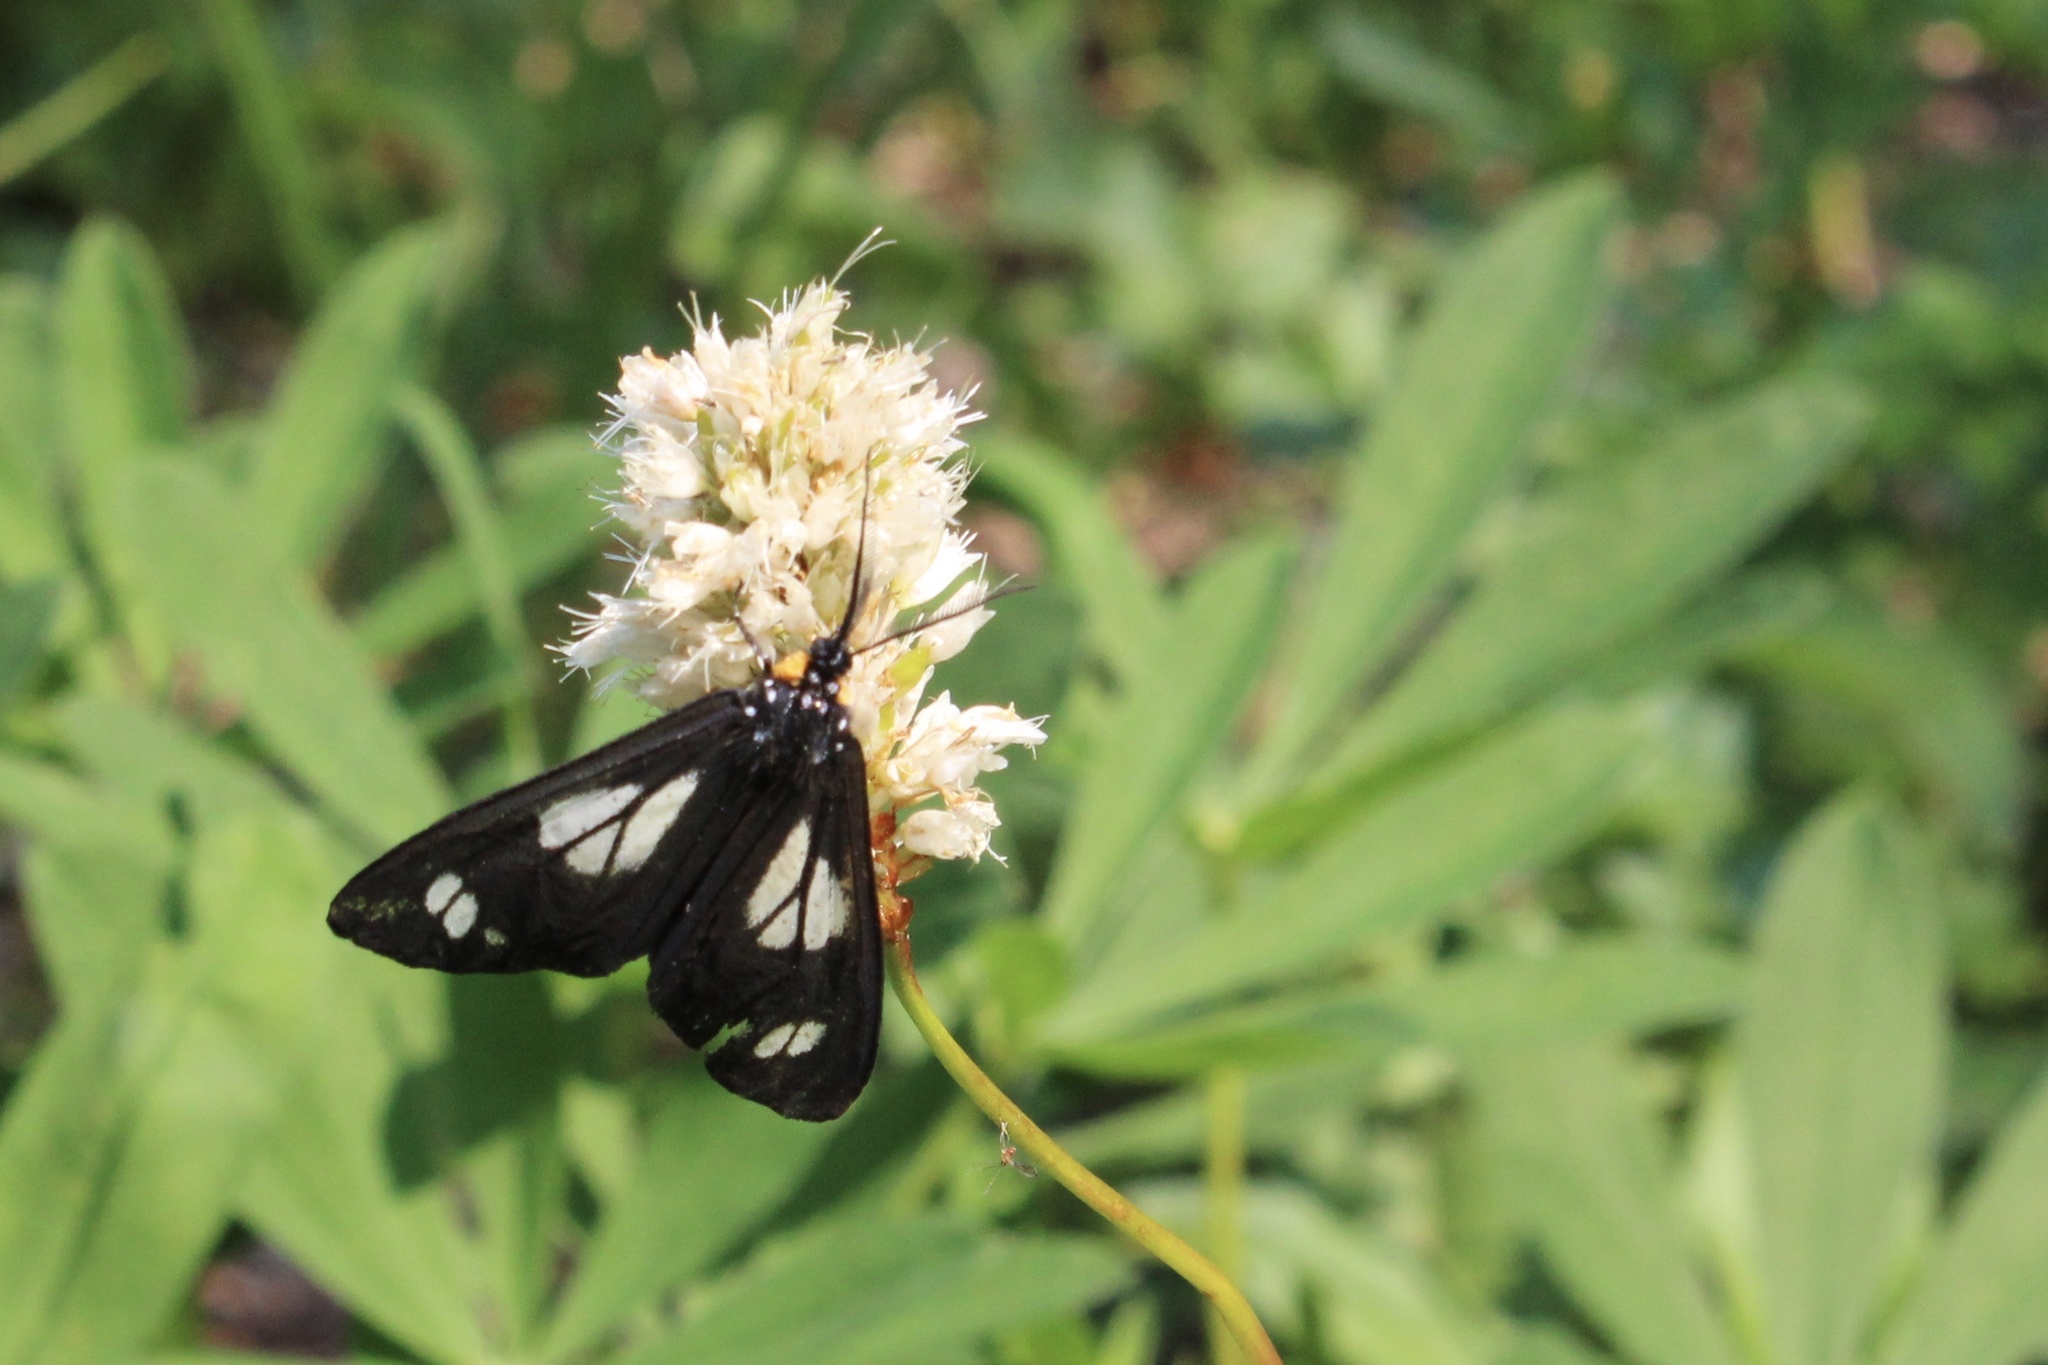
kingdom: Animalia
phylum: Arthropoda
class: Insecta
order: Lepidoptera
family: Erebidae
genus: Gnophaela
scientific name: Gnophaela vermiculata
